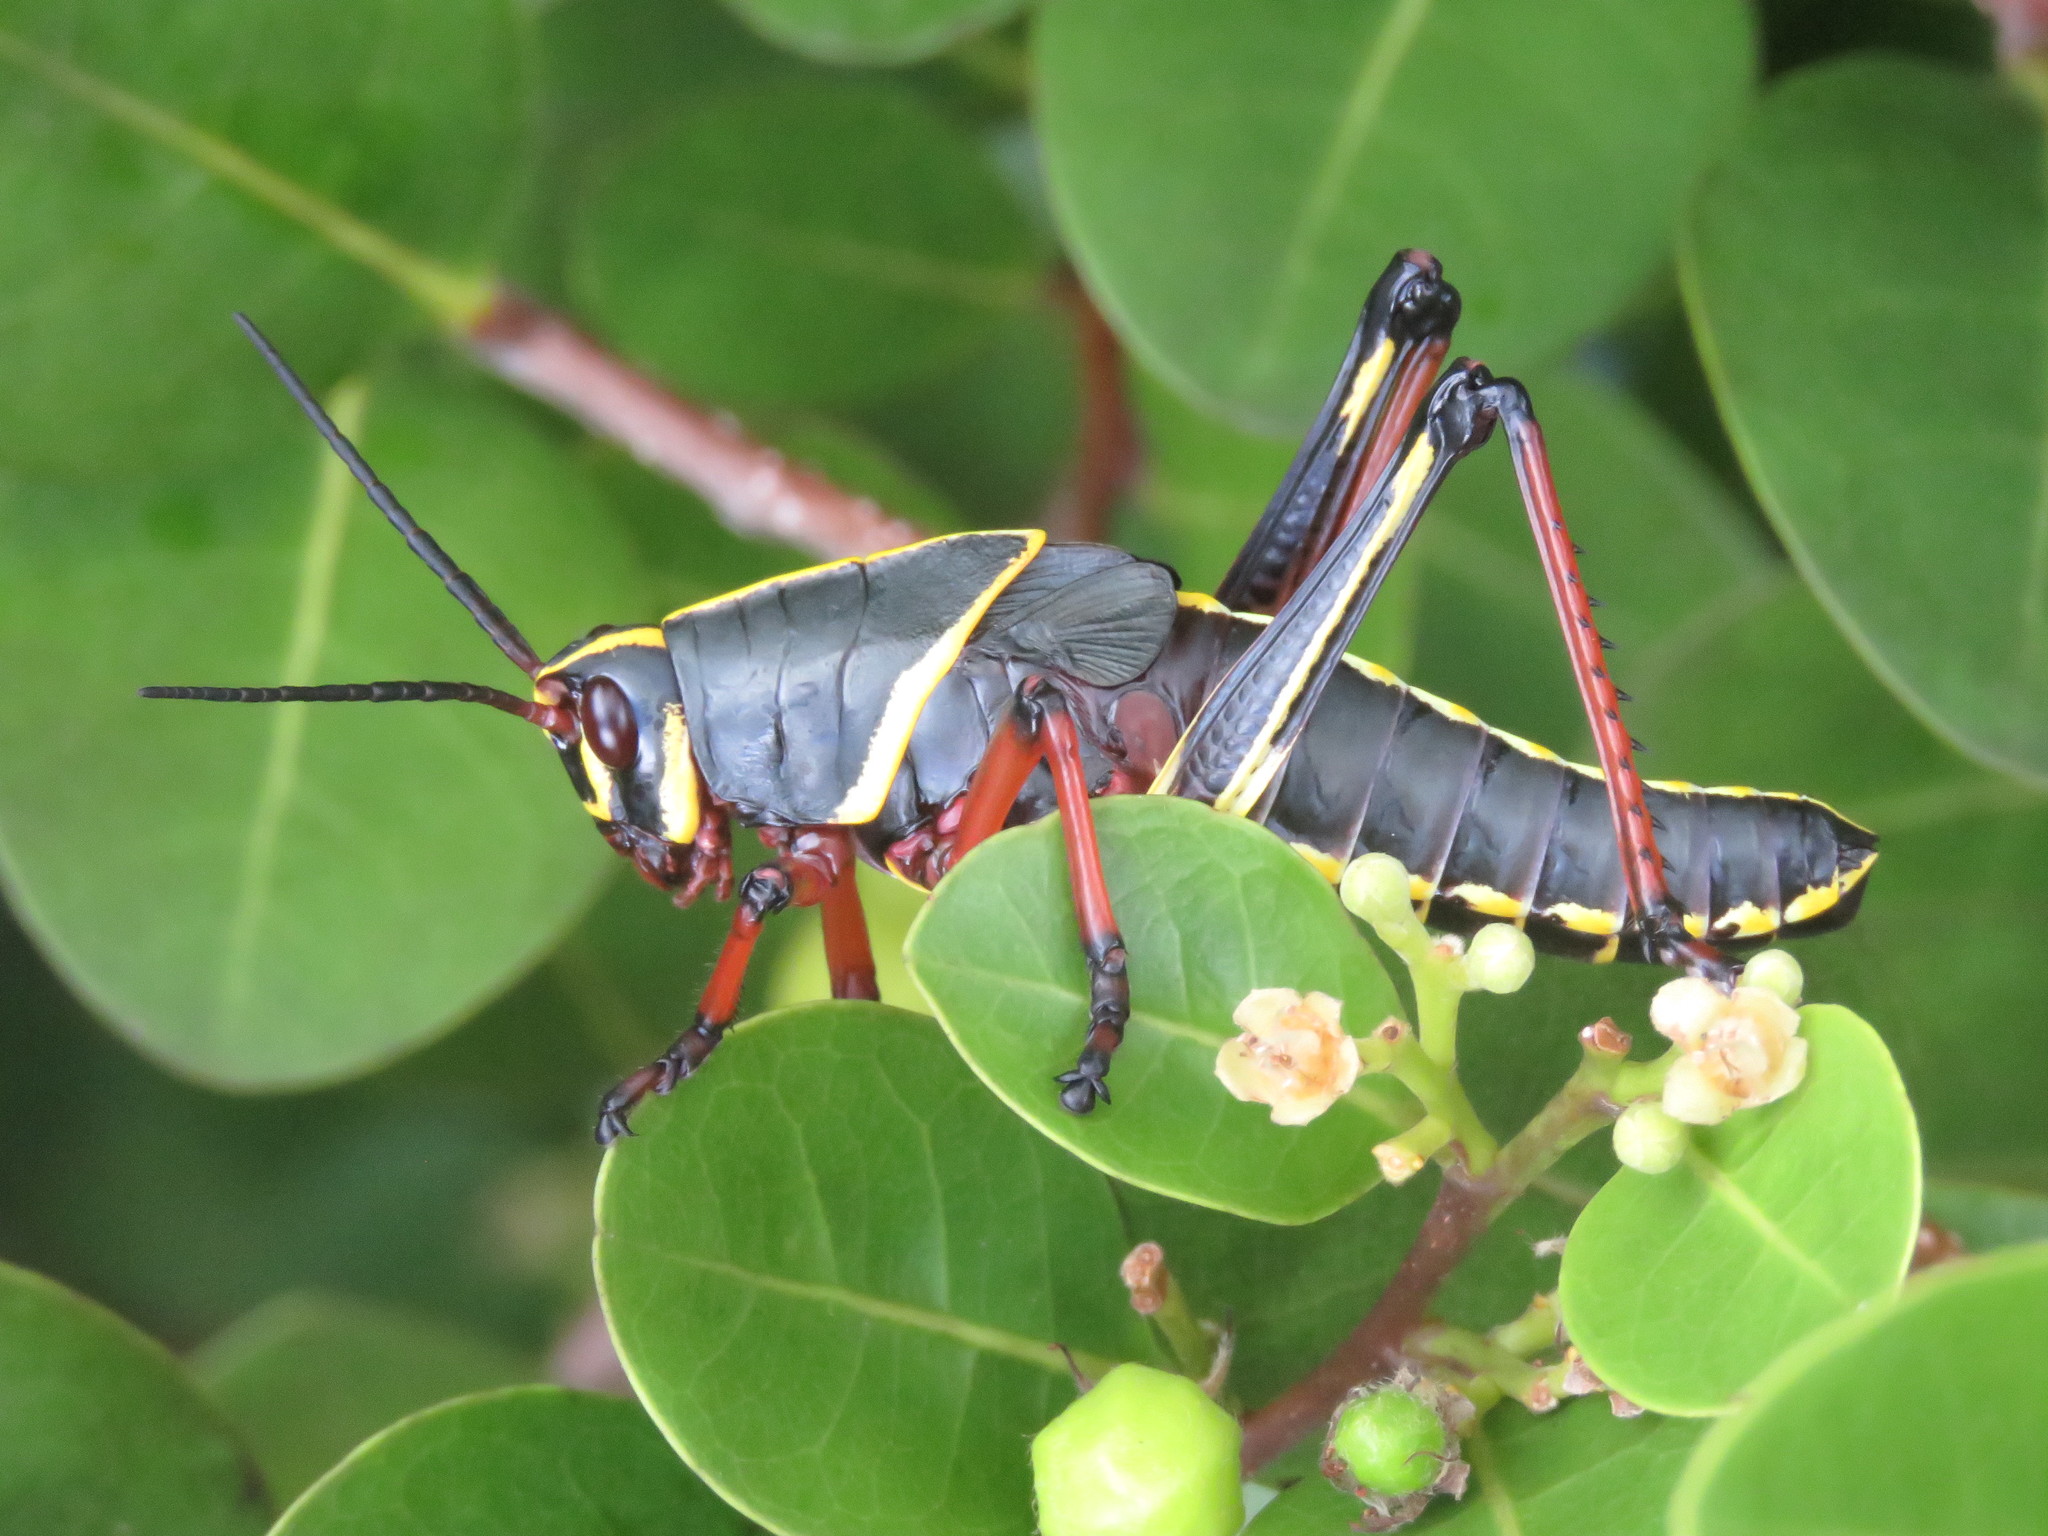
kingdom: Animalia
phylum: Arthropoda
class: Insecta
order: Orthoptera
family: Romaleidae
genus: Romalea
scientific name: Romalea microptera
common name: Eastern lubber grasshopper
